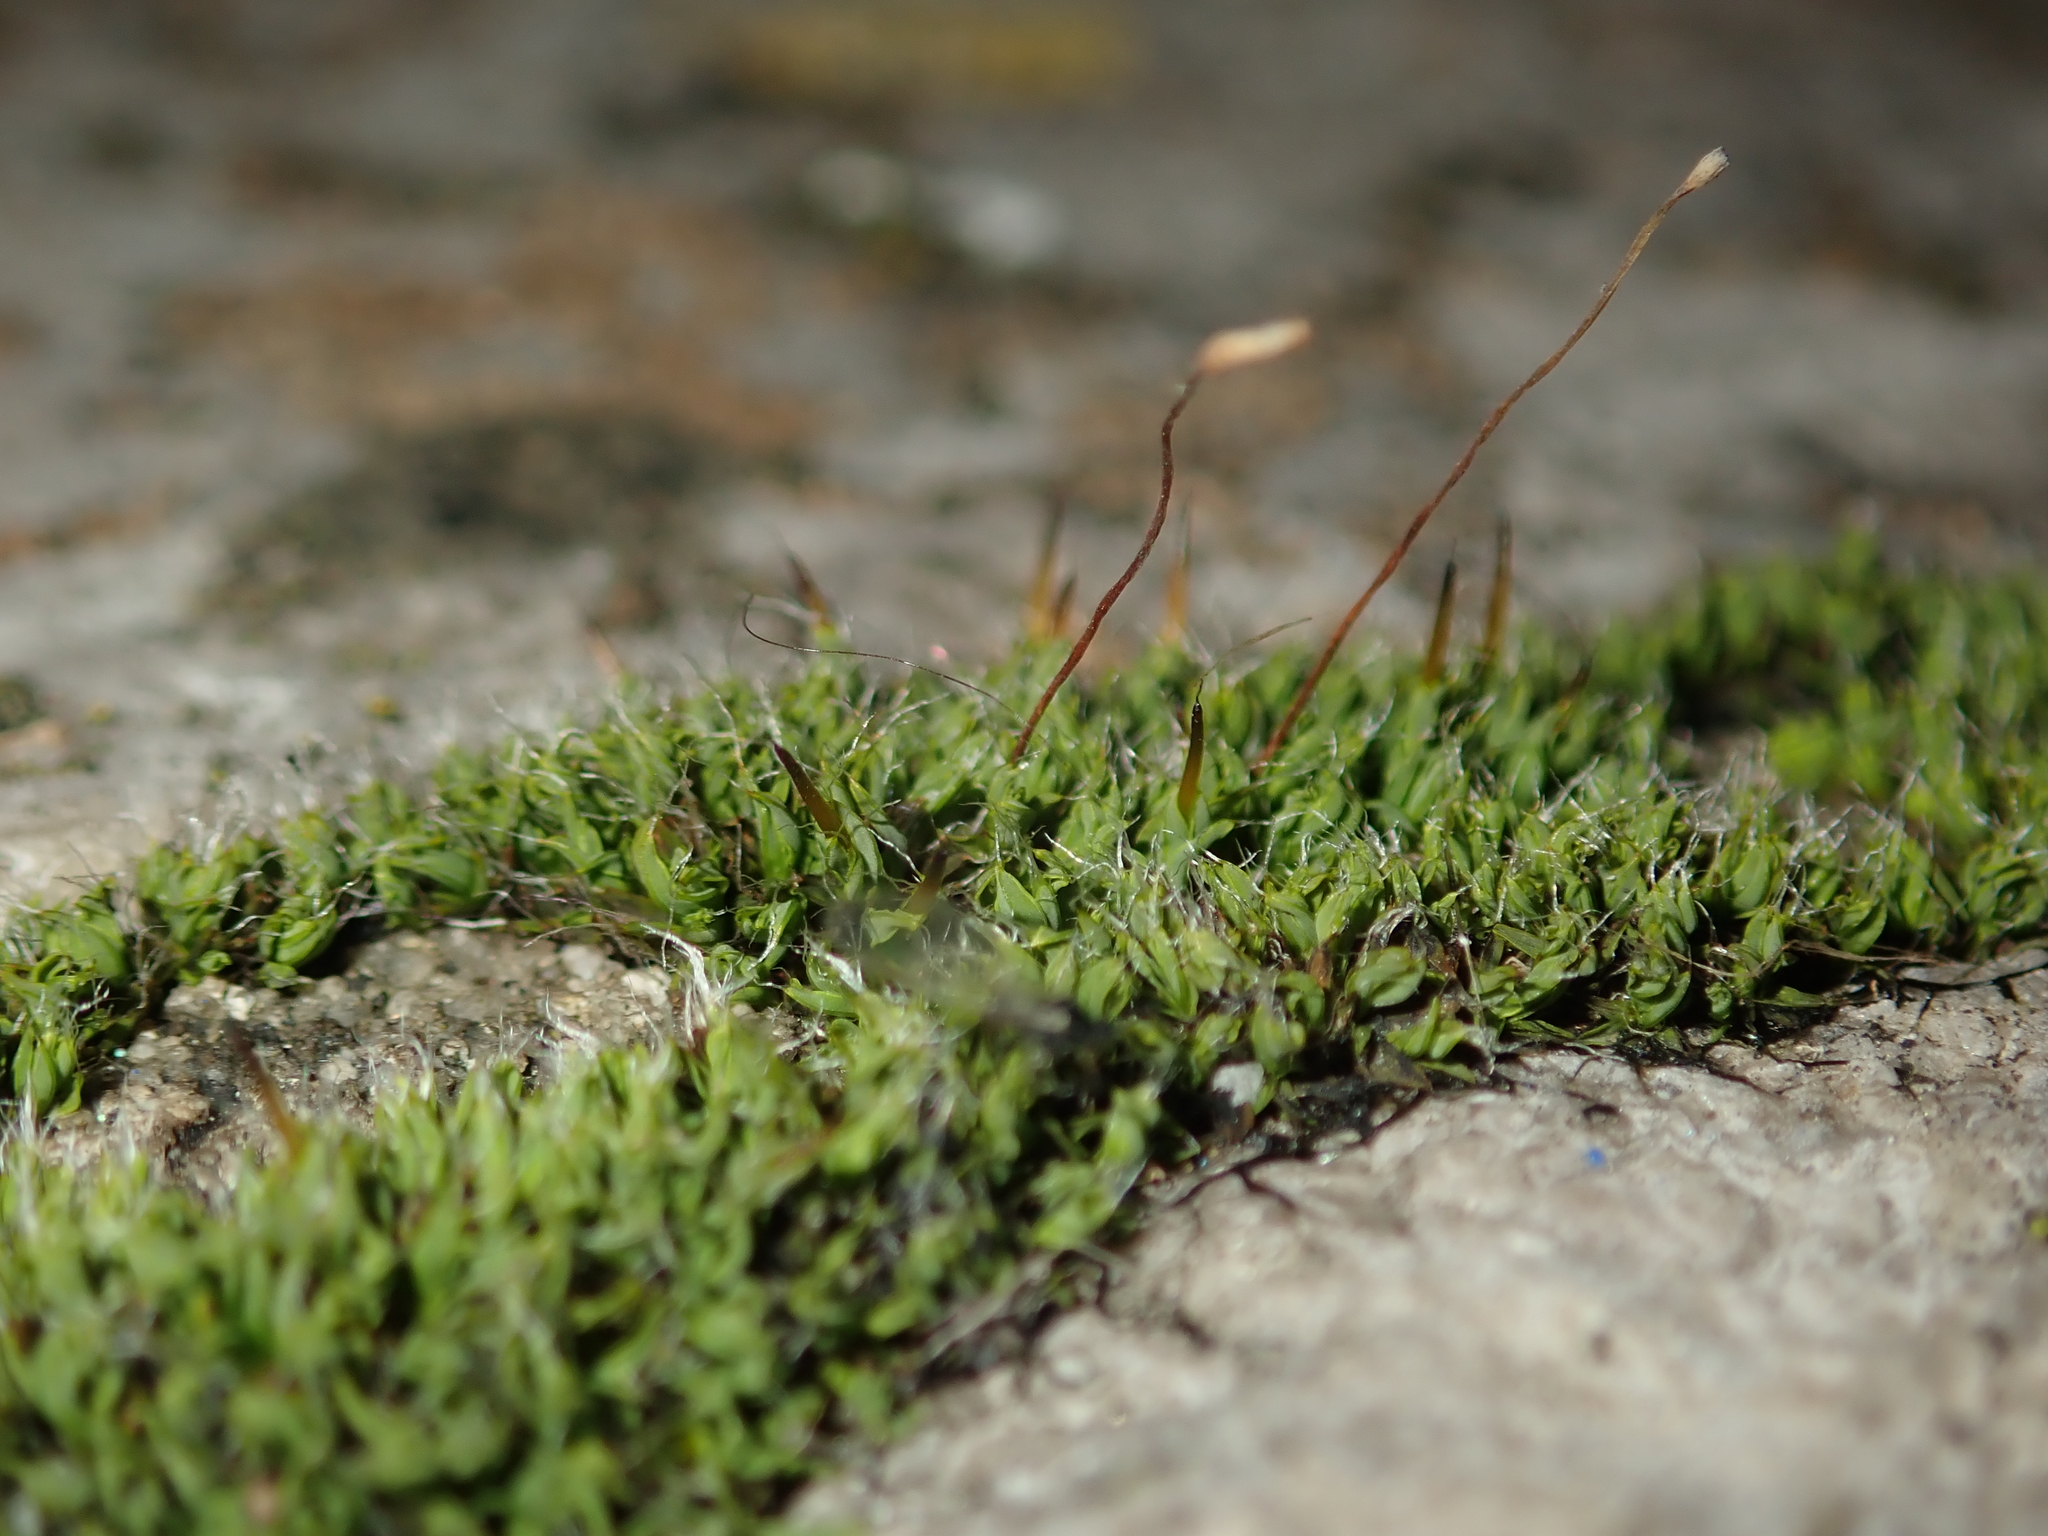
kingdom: Plantae
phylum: Bryophyta
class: Bryopsida
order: Pottiales
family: Pottiaceae
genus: Tortula
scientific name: Tortula muralis
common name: Wall screw-moss
